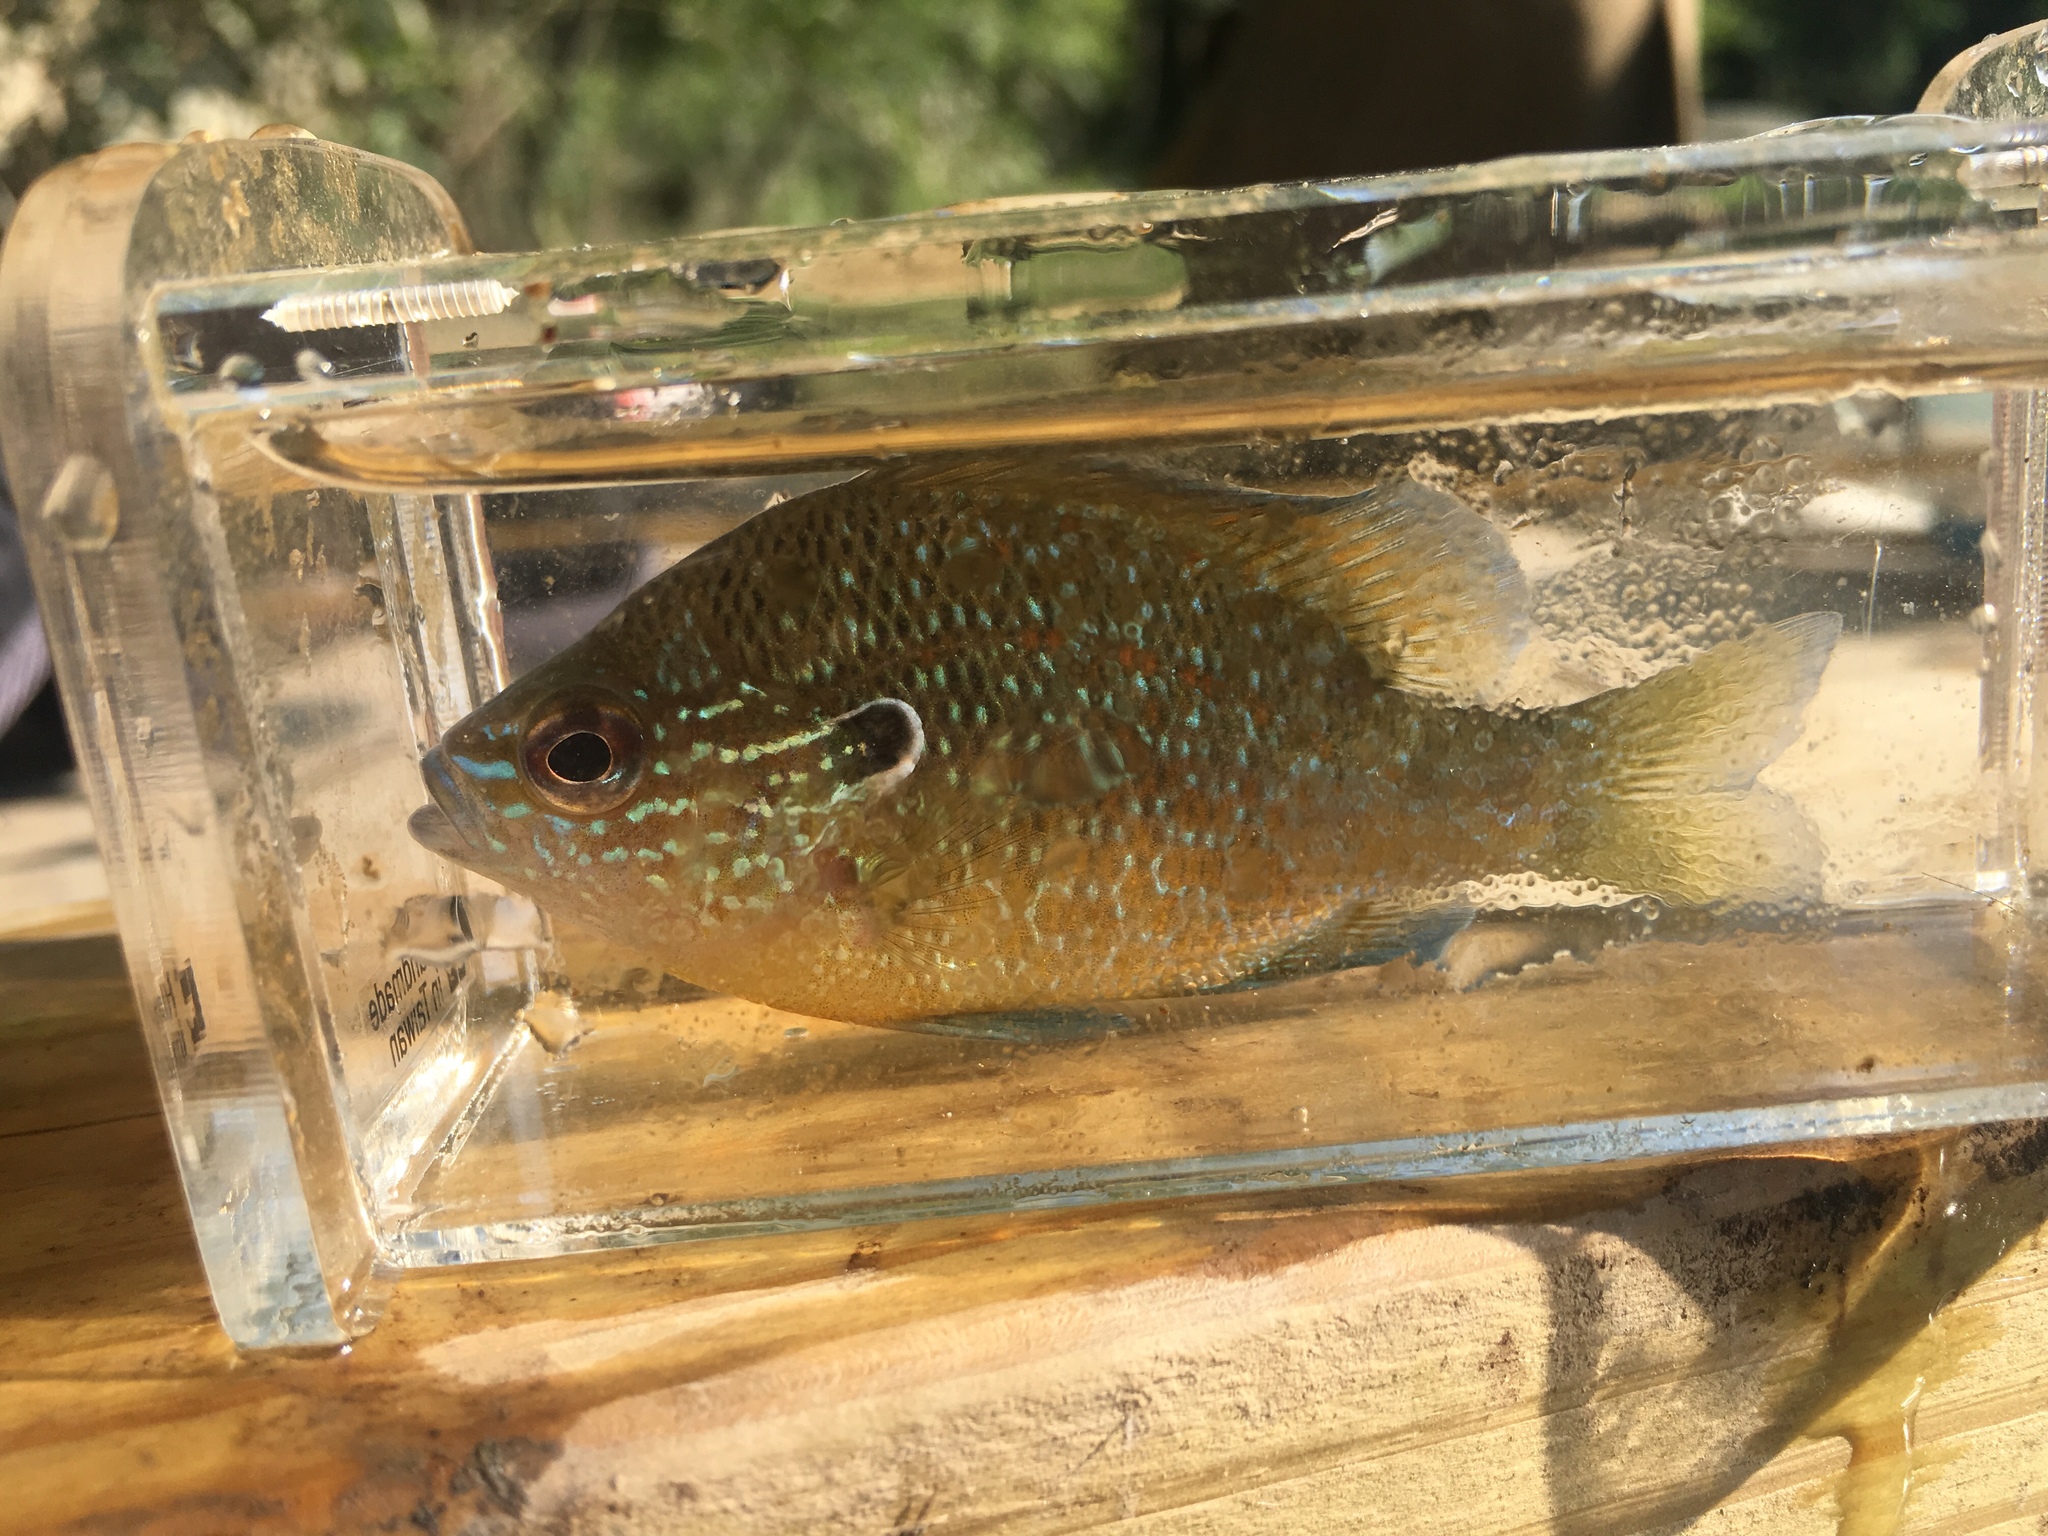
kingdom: Animalia
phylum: Chordata
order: Perciformes
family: Centrarchidae
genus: Lepomis
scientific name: Lepomis marginatus
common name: Dollar sunfish
